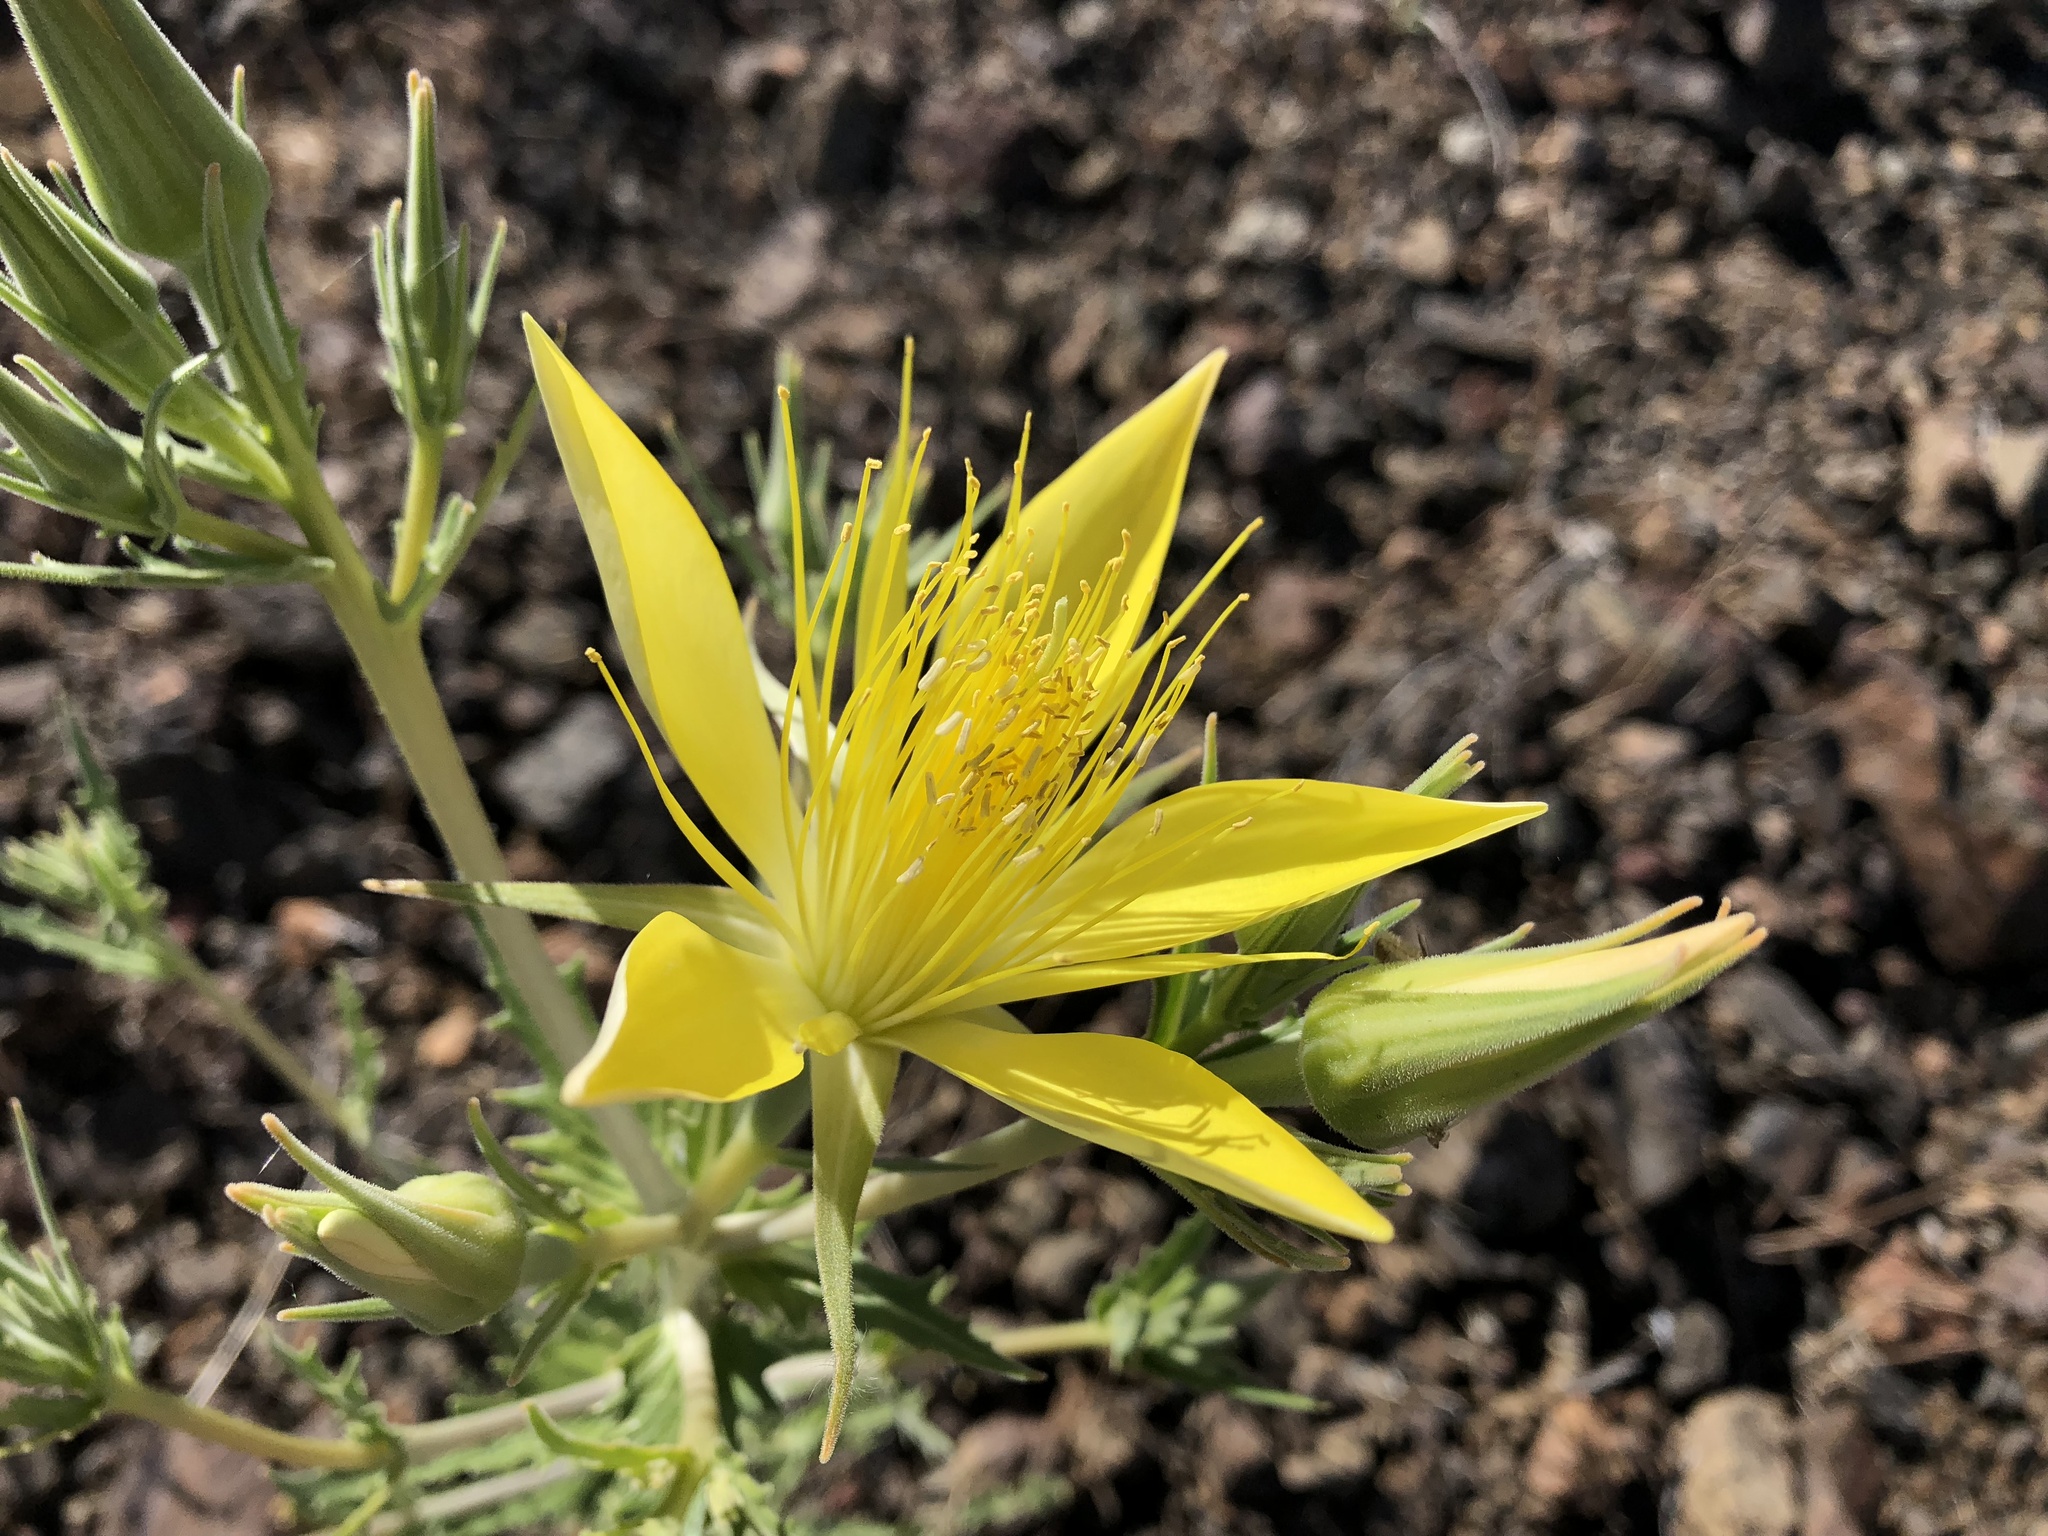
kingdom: Plantae
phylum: Tracheophyta
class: Magnoliopsida
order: Cornales
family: Loasaceae
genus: Mentzelia
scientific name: Mentzelia laevicaulis
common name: Smooth-stem blazingstar
